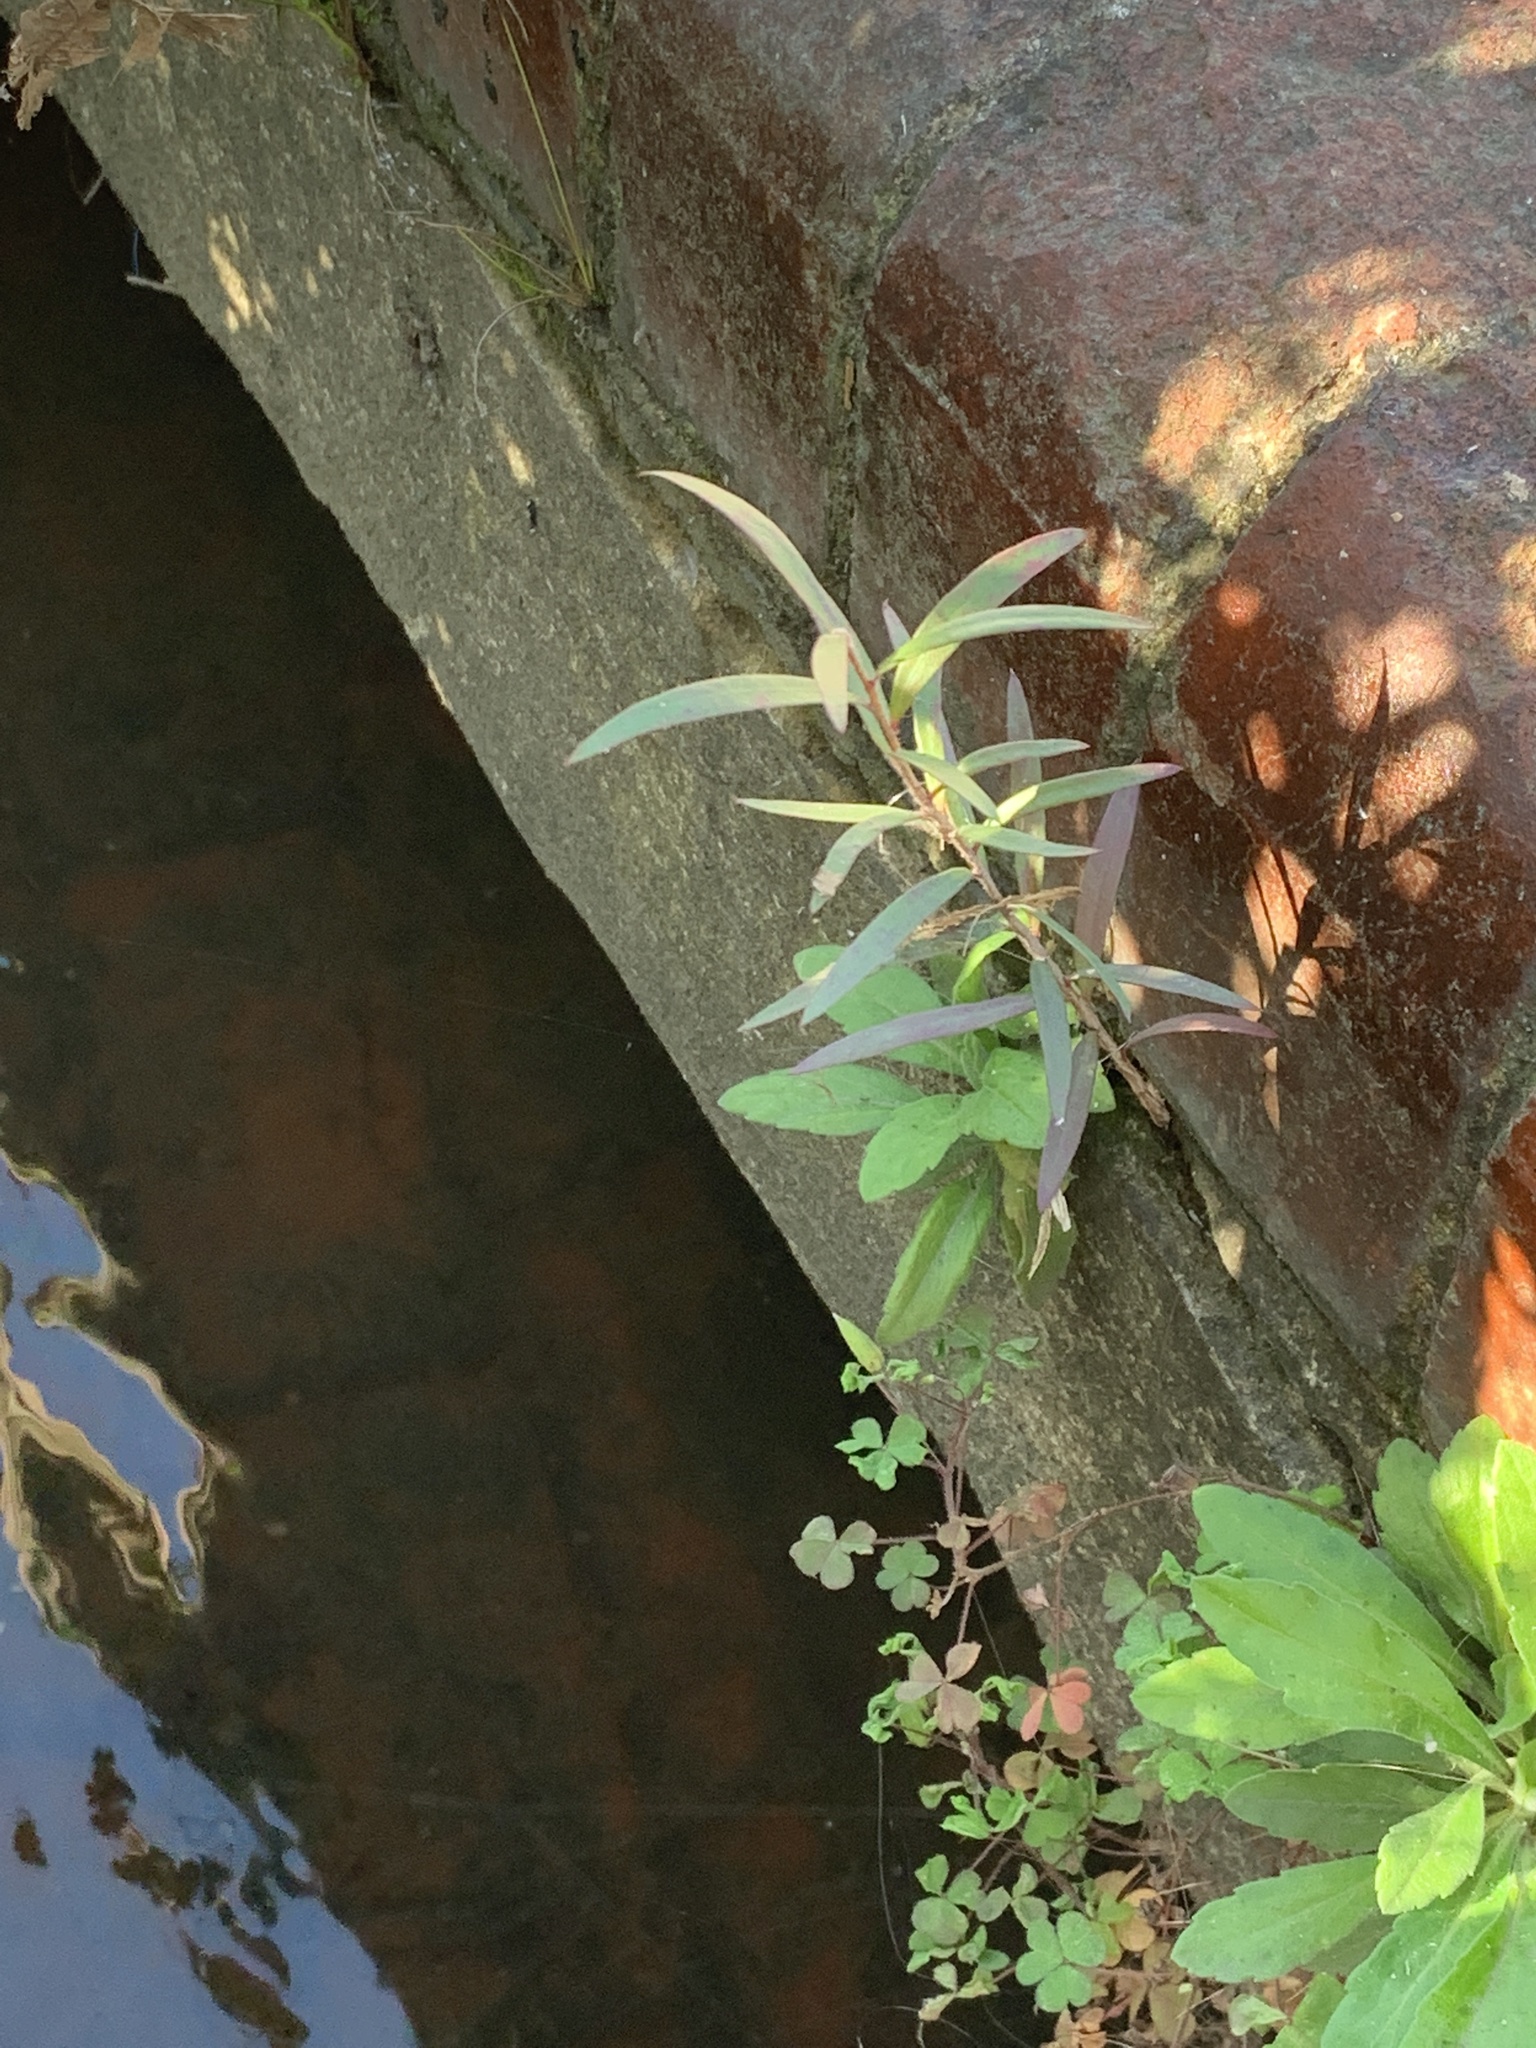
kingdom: Plantae
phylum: Tracheophyta
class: Magnoliopsida
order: Myrtales
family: Myrtaceae
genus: Callistemon
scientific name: Callistemon viminalis
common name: Drooping bottlebrush
